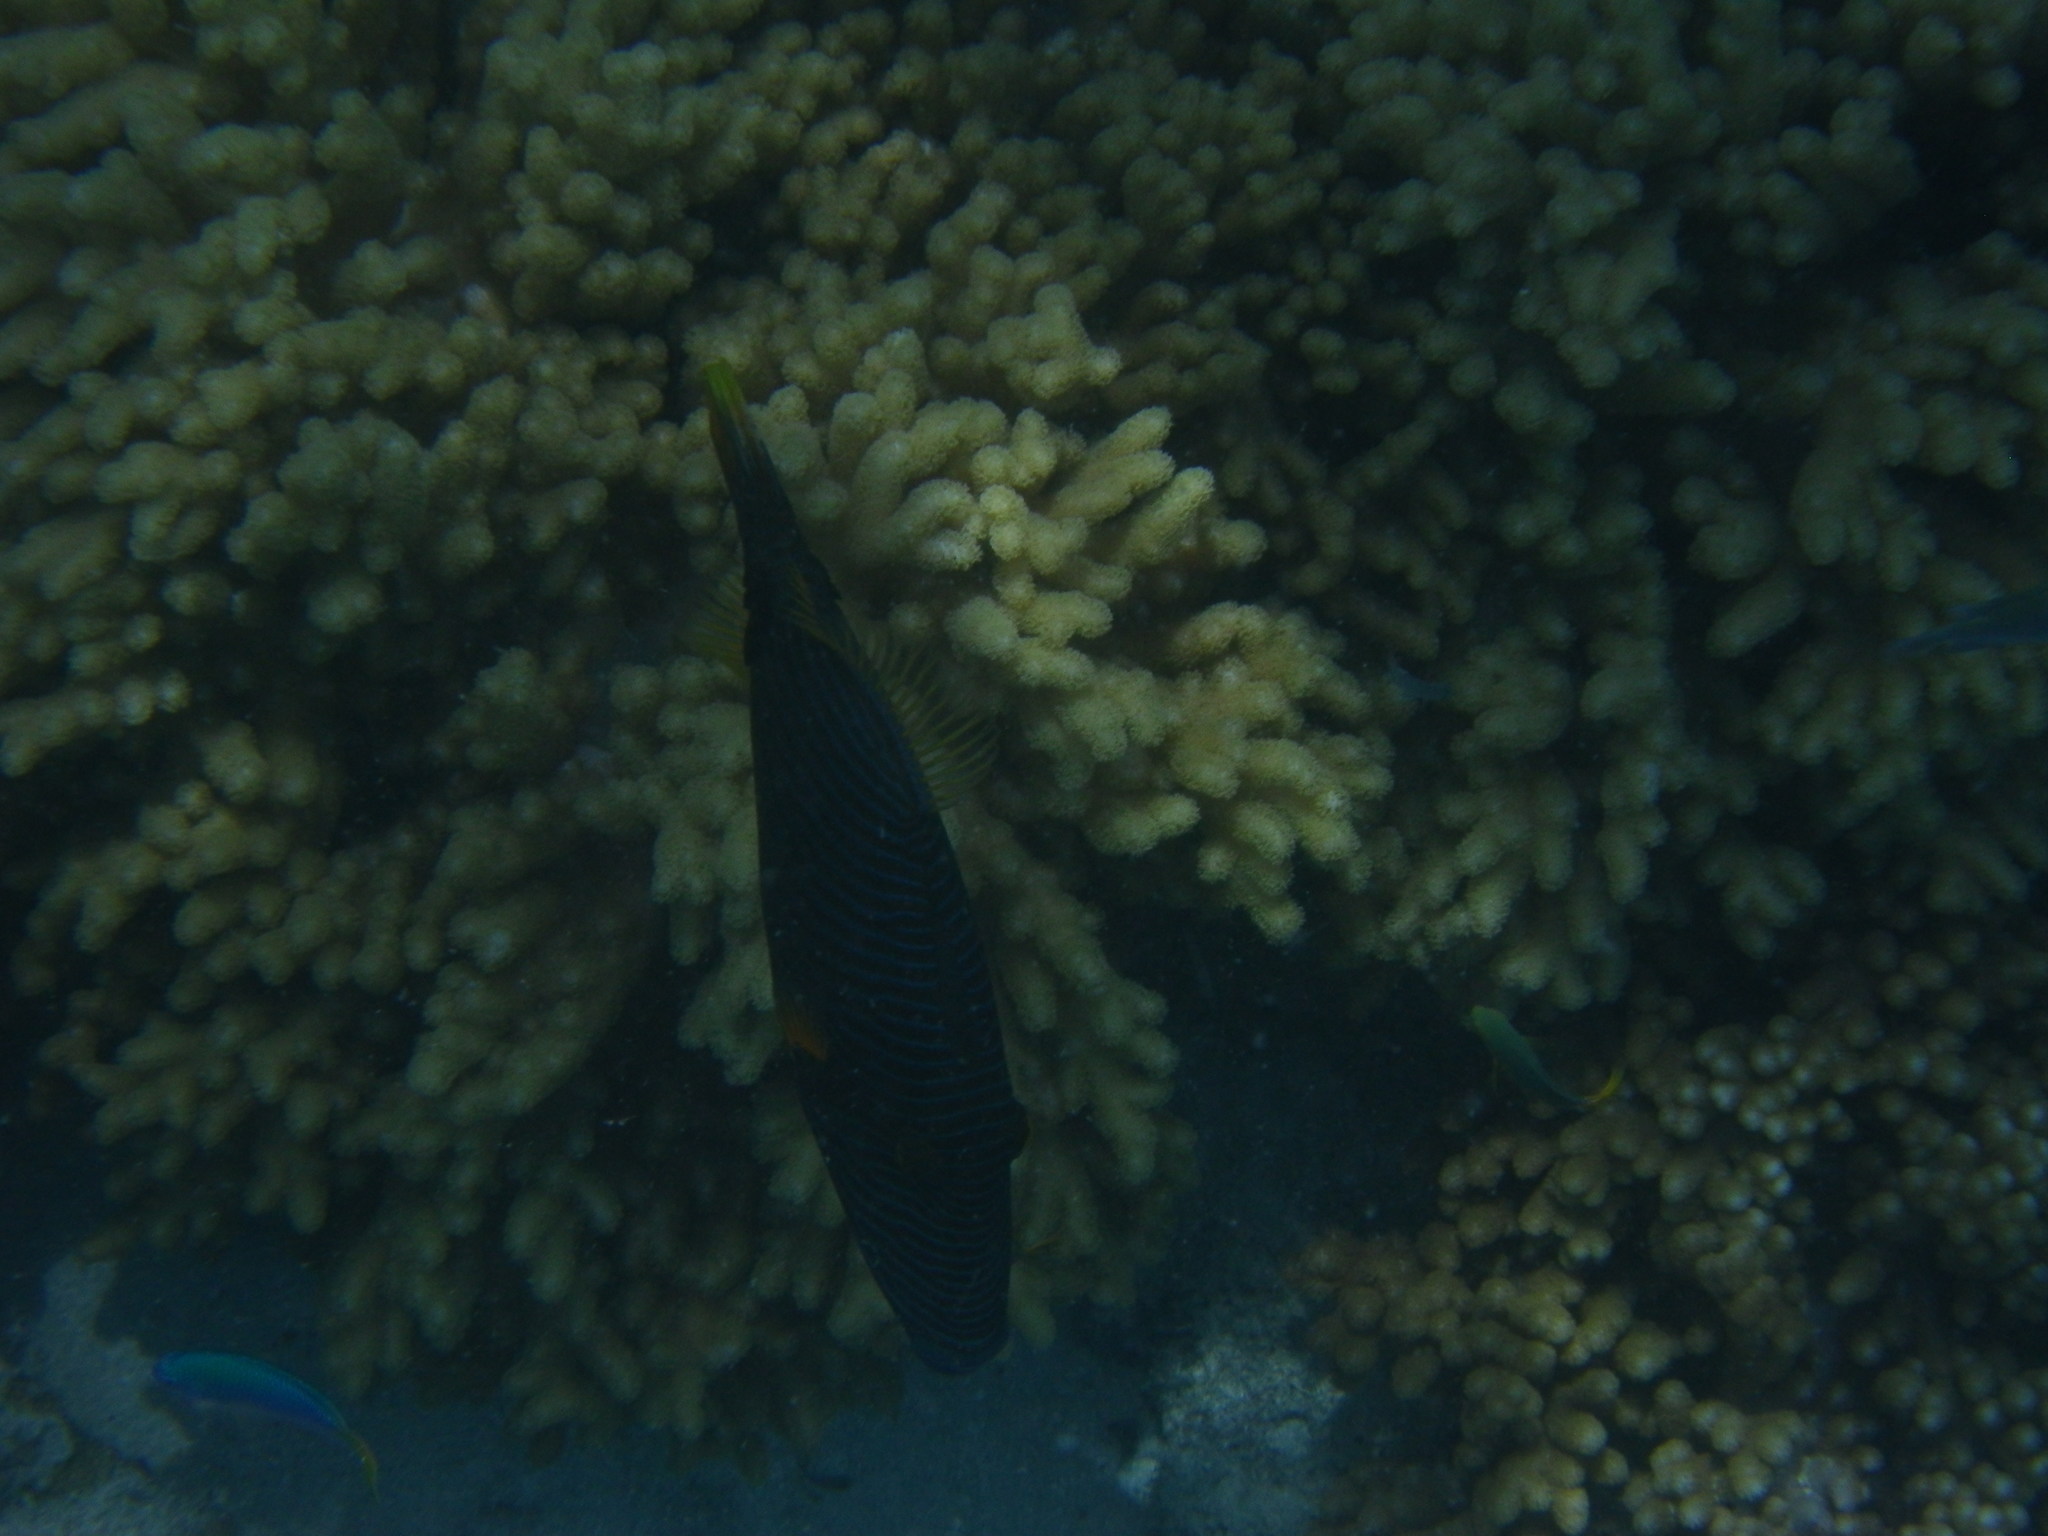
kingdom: Animalia
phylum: Chordata
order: Tetraodontiformes
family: Balistidae
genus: Balistapus
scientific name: Balistapus undulatus
